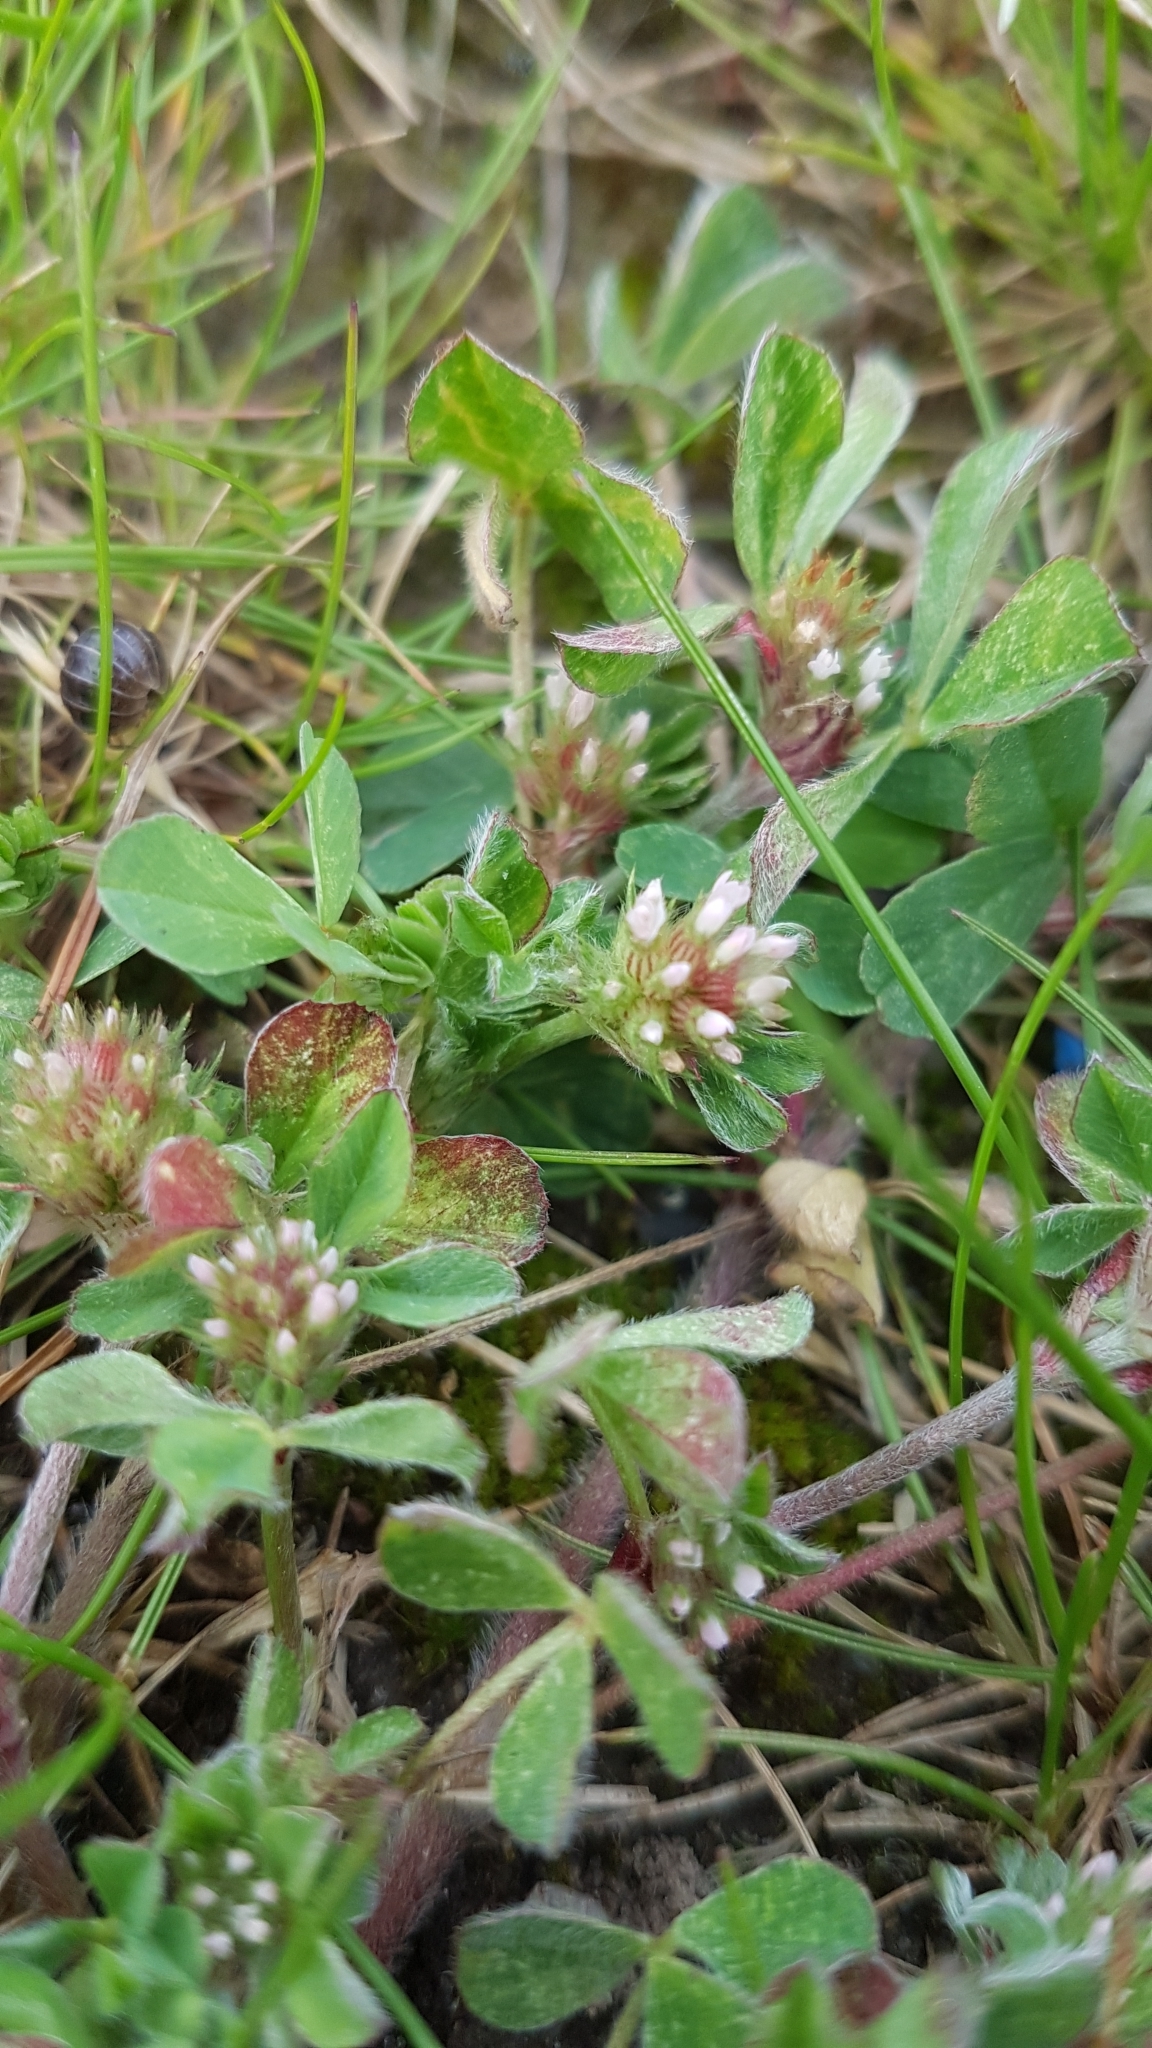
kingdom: Plantae
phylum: Tracheophyta
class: Magnoliopsida
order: Fabales
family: Fabaceae
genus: Trifolium
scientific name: Trifolium striatum
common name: Knotted clover
